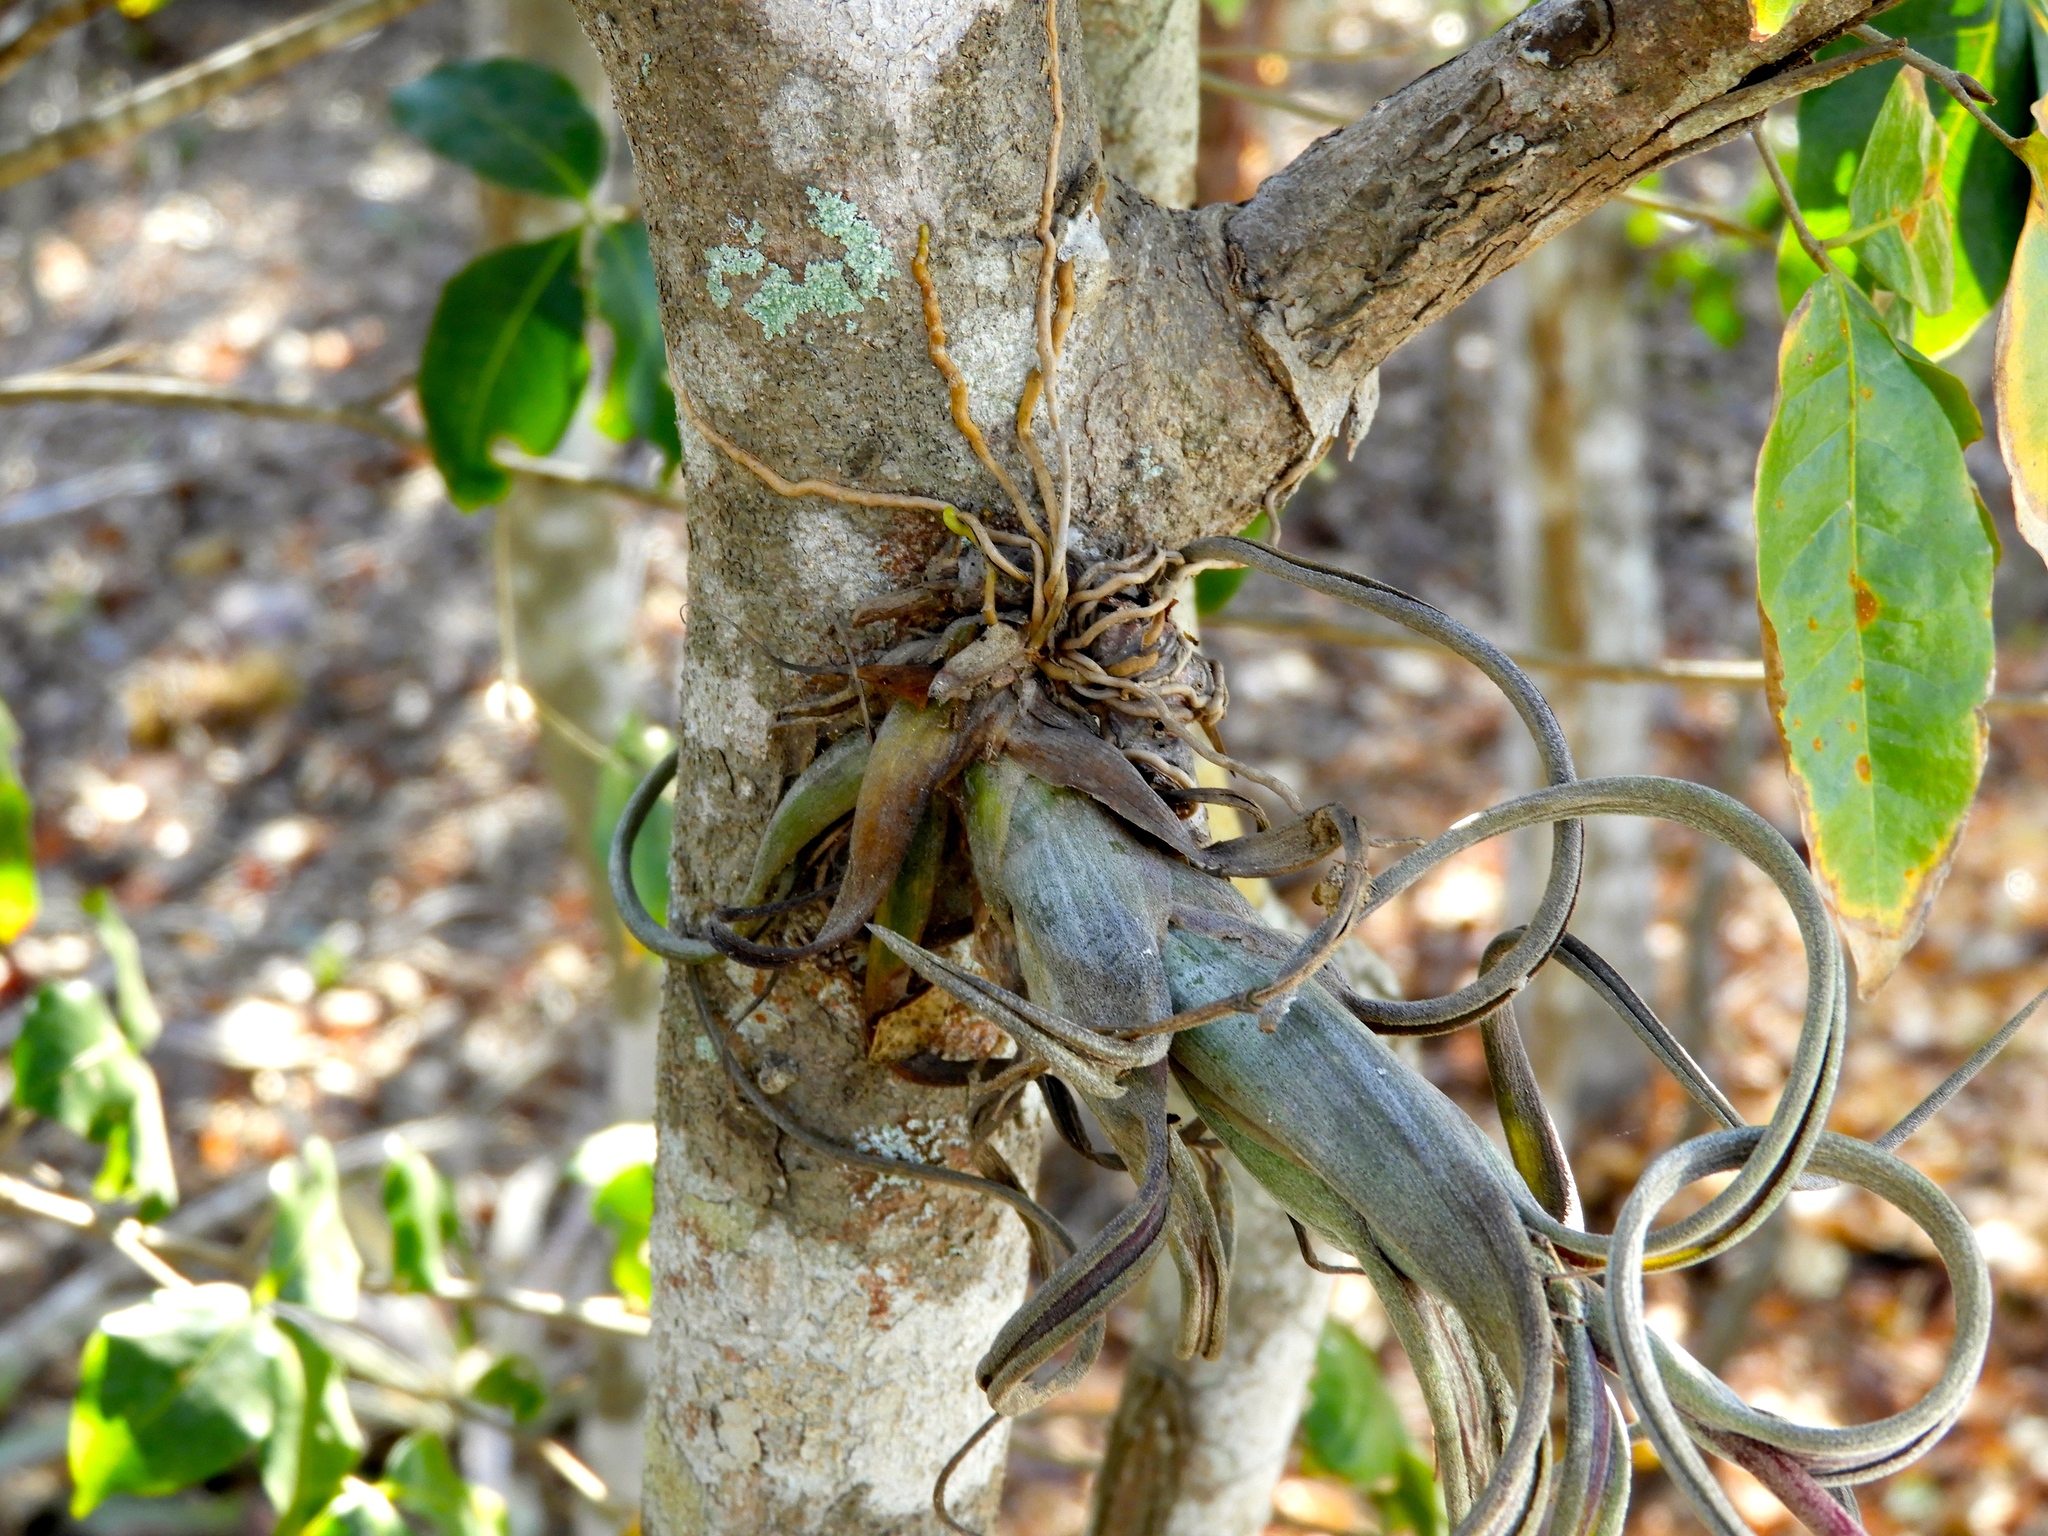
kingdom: Plantae
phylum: Tracheophyta
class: Liliopsida
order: Poales
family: Bromeliaceae
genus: Tillandsia
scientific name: Tillandsia
